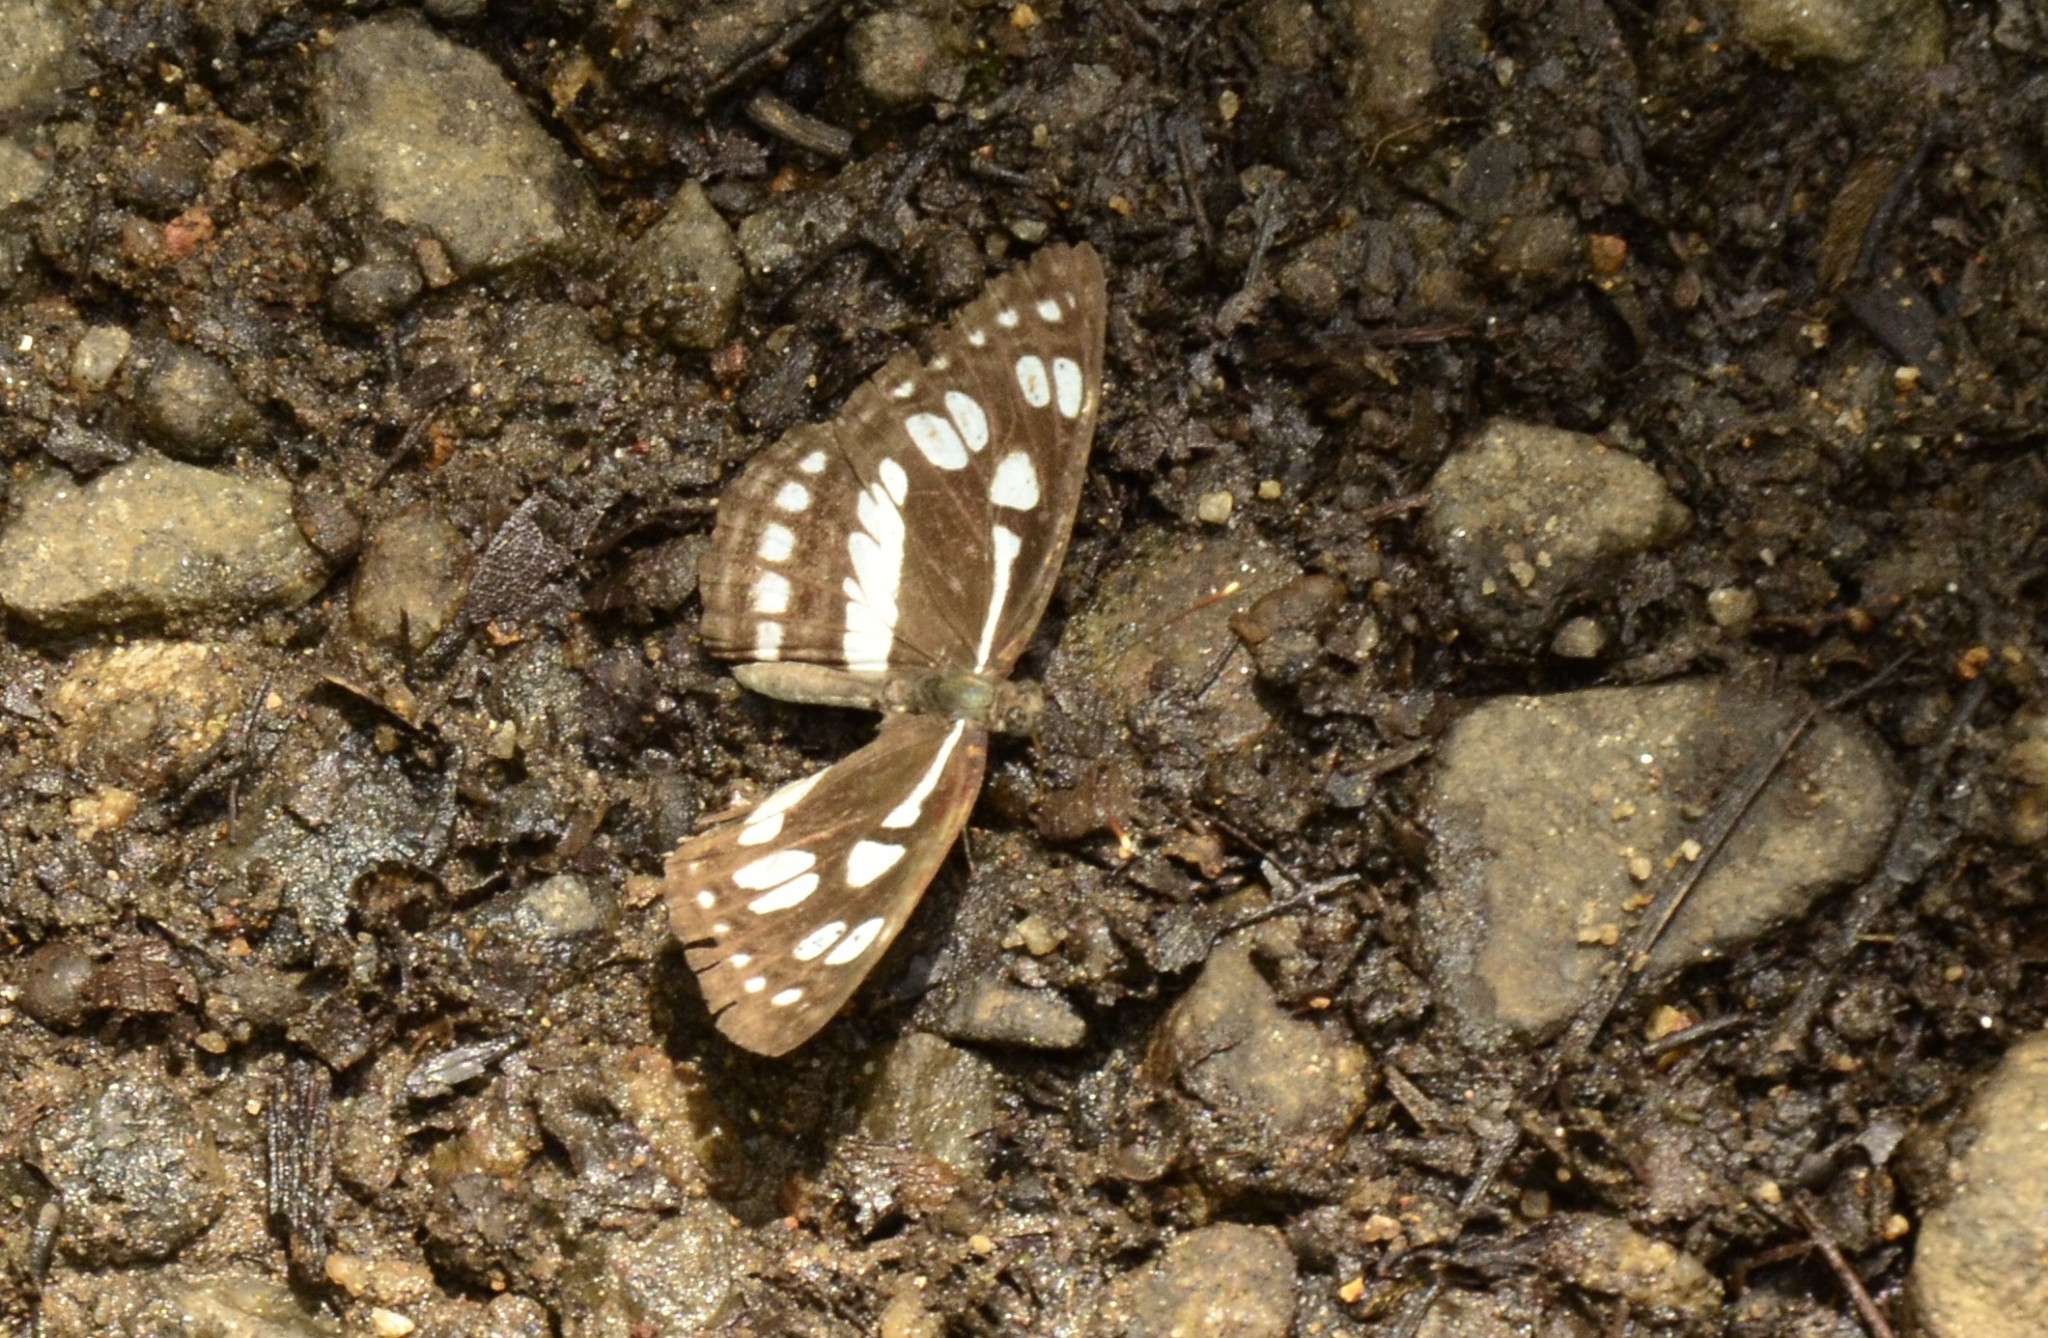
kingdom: Animalia
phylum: Arthropoda
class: Insecta
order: Lepidoptera
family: Nymphalidae
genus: Phaedyma
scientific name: Phaedyma columella
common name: Short banded sailer
